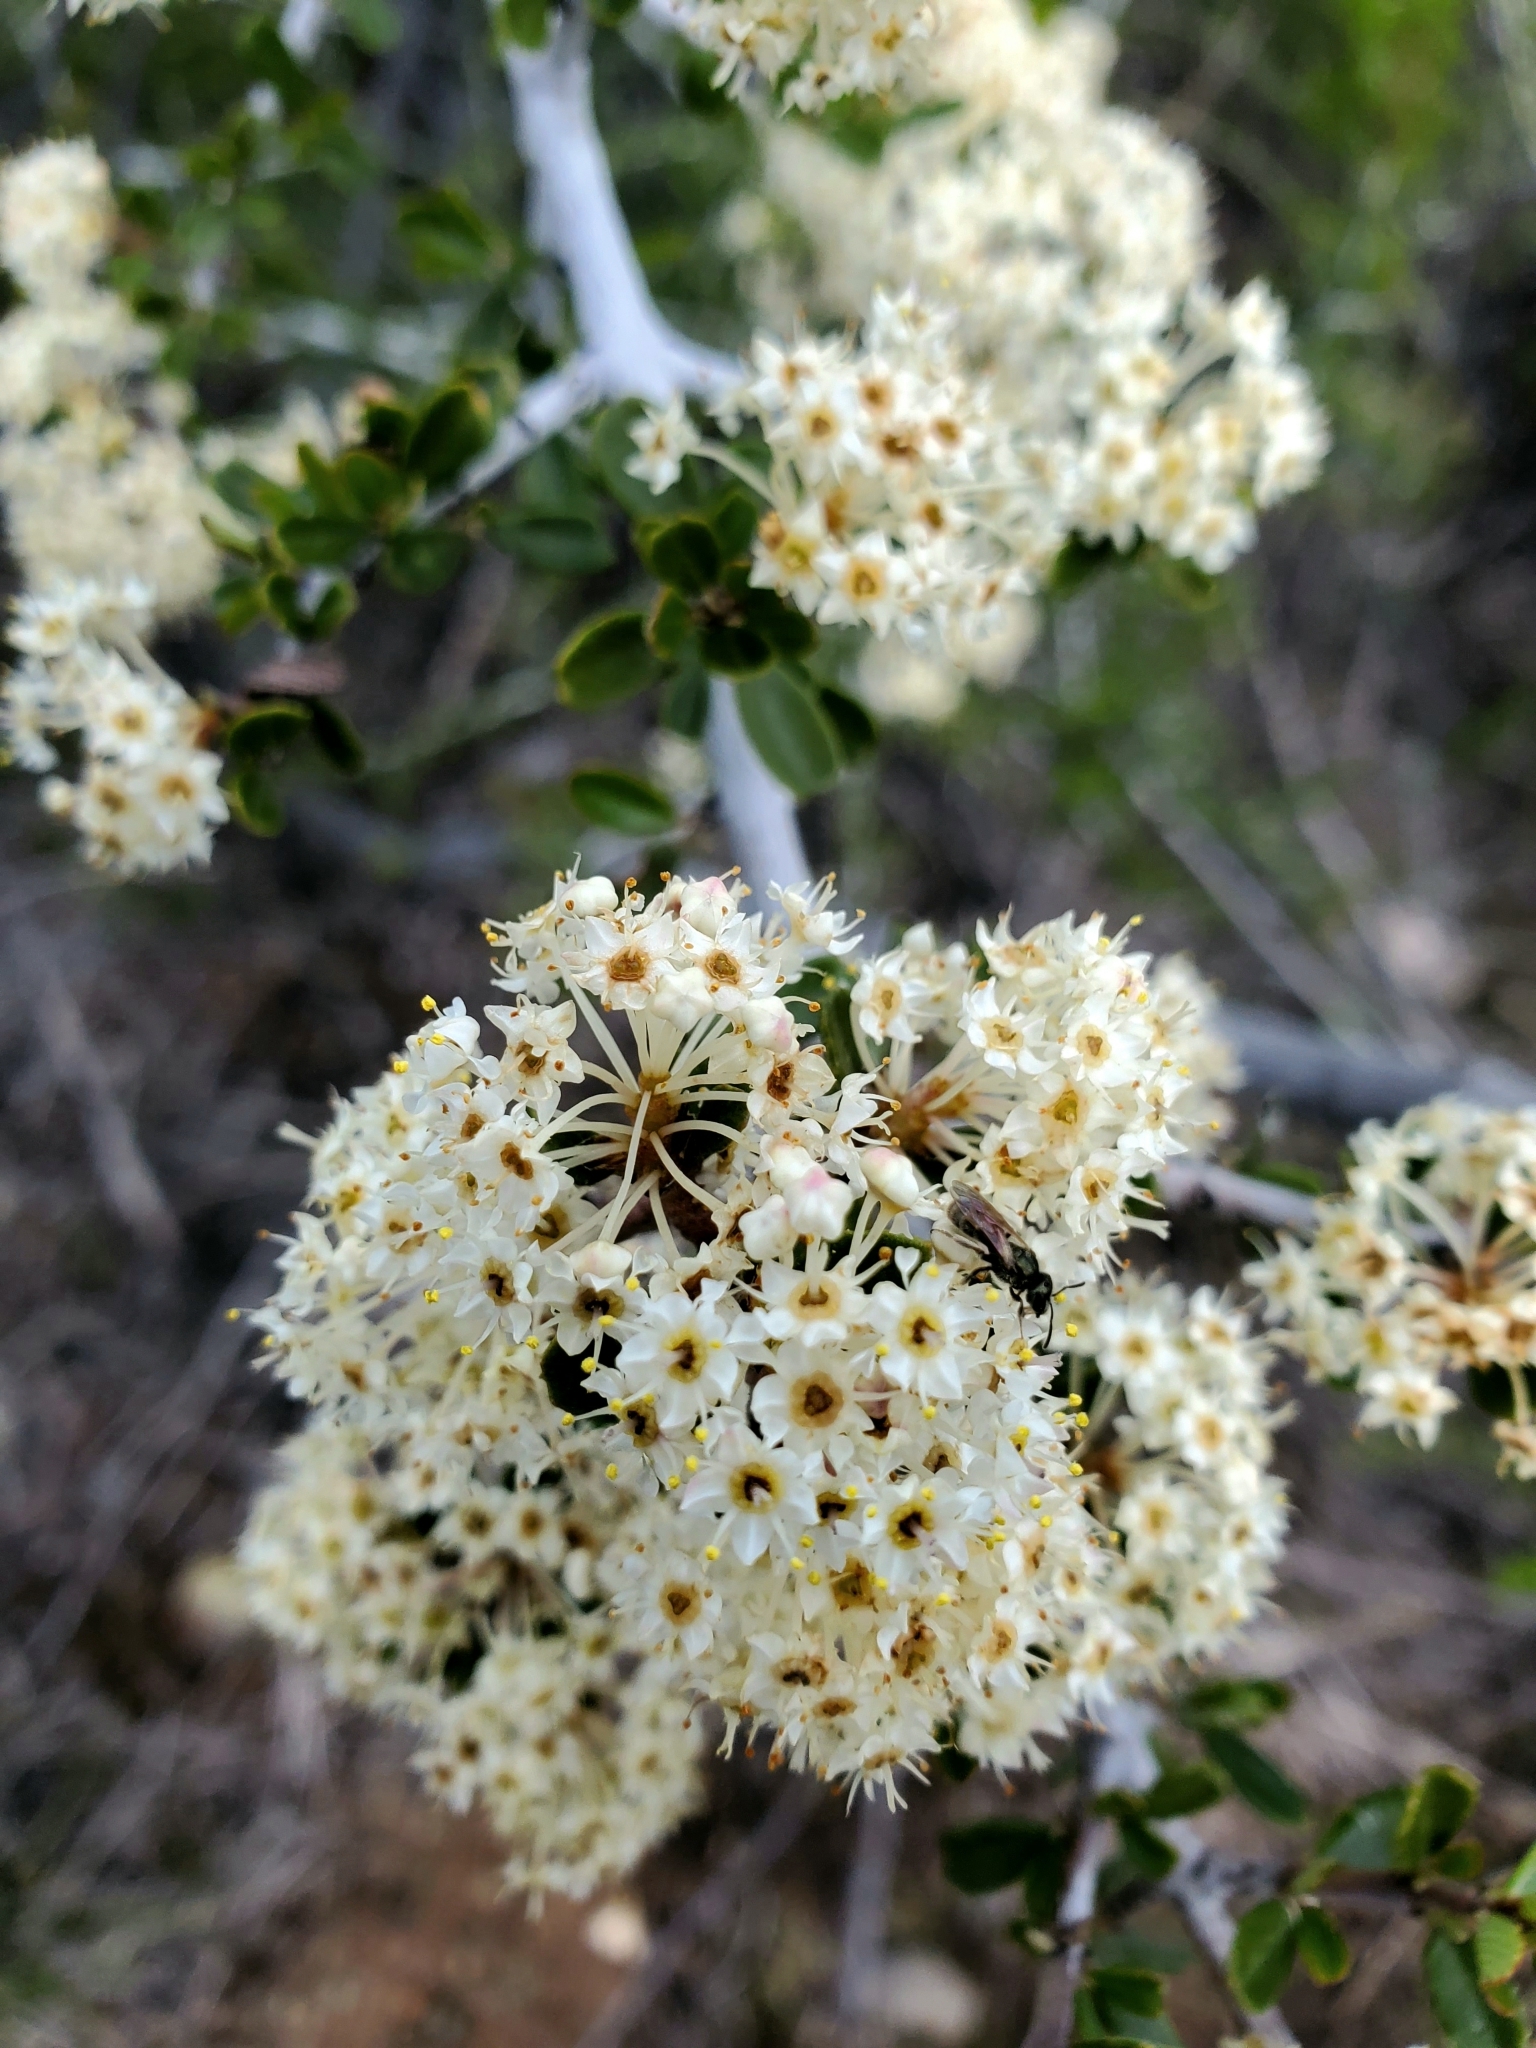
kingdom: Plantae
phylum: Tracheophyta
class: Magnoliopsida
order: Rosales
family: Rhamnaceae
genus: Ceanothus
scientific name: Ceanothus cuneatus
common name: Cuneate ceanothus
